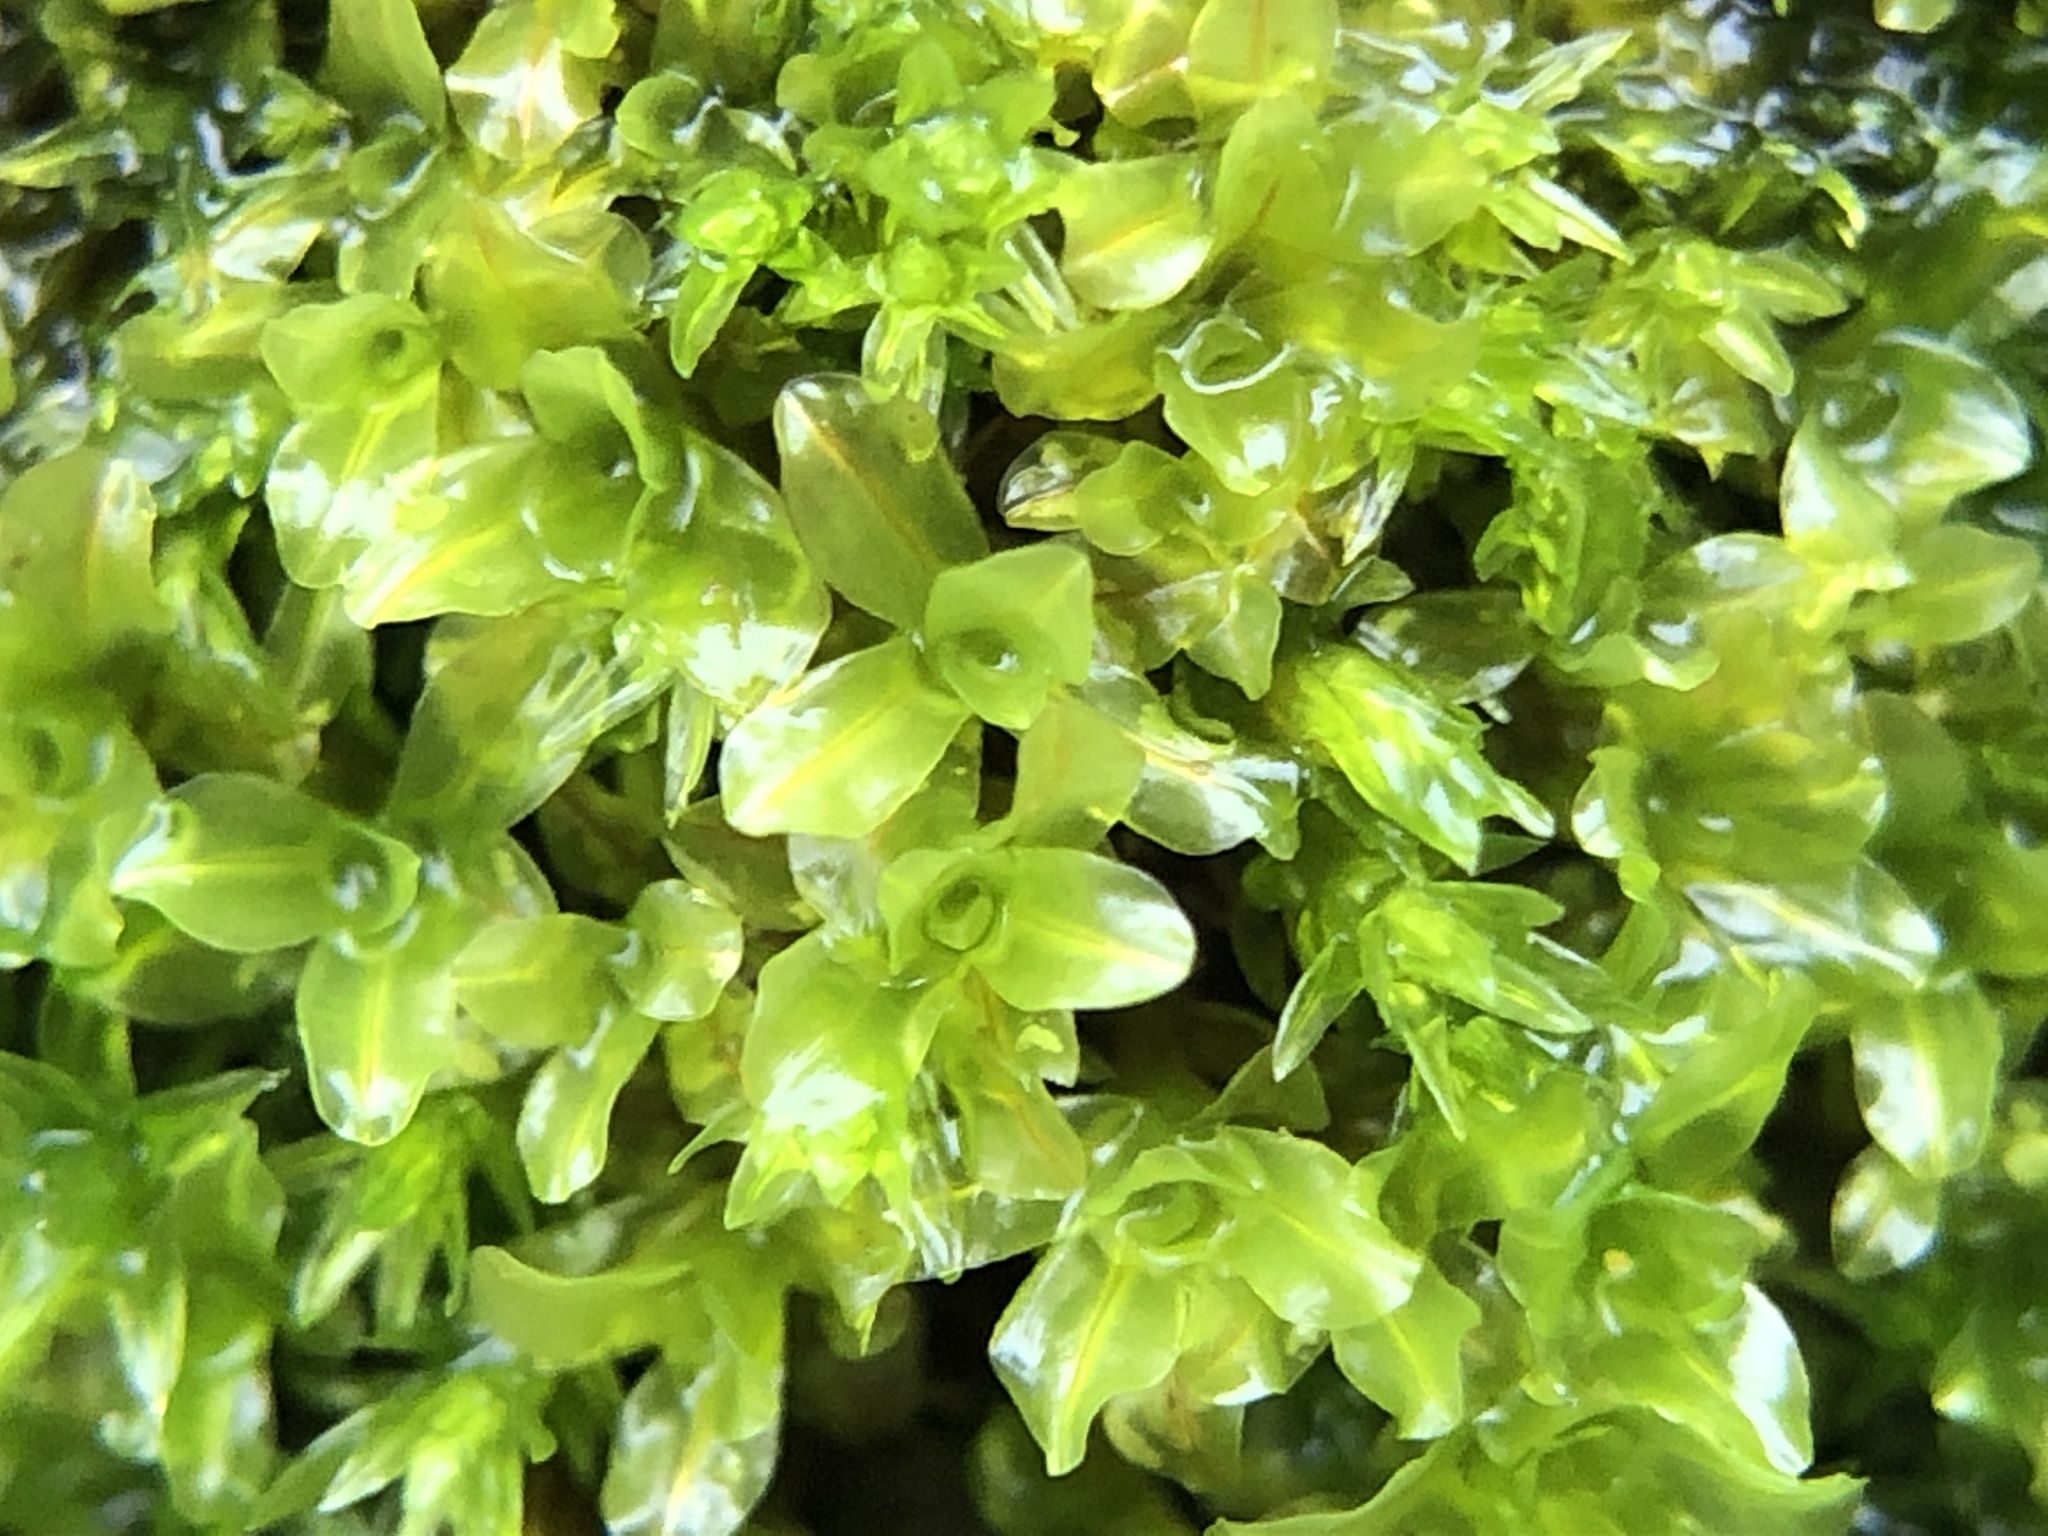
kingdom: Plantae
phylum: Bryophyta
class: Bryopsida
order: Pottiales
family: Pottiaceae
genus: Syntrichia
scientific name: Syntrichia latifolia
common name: Water screw-moss
